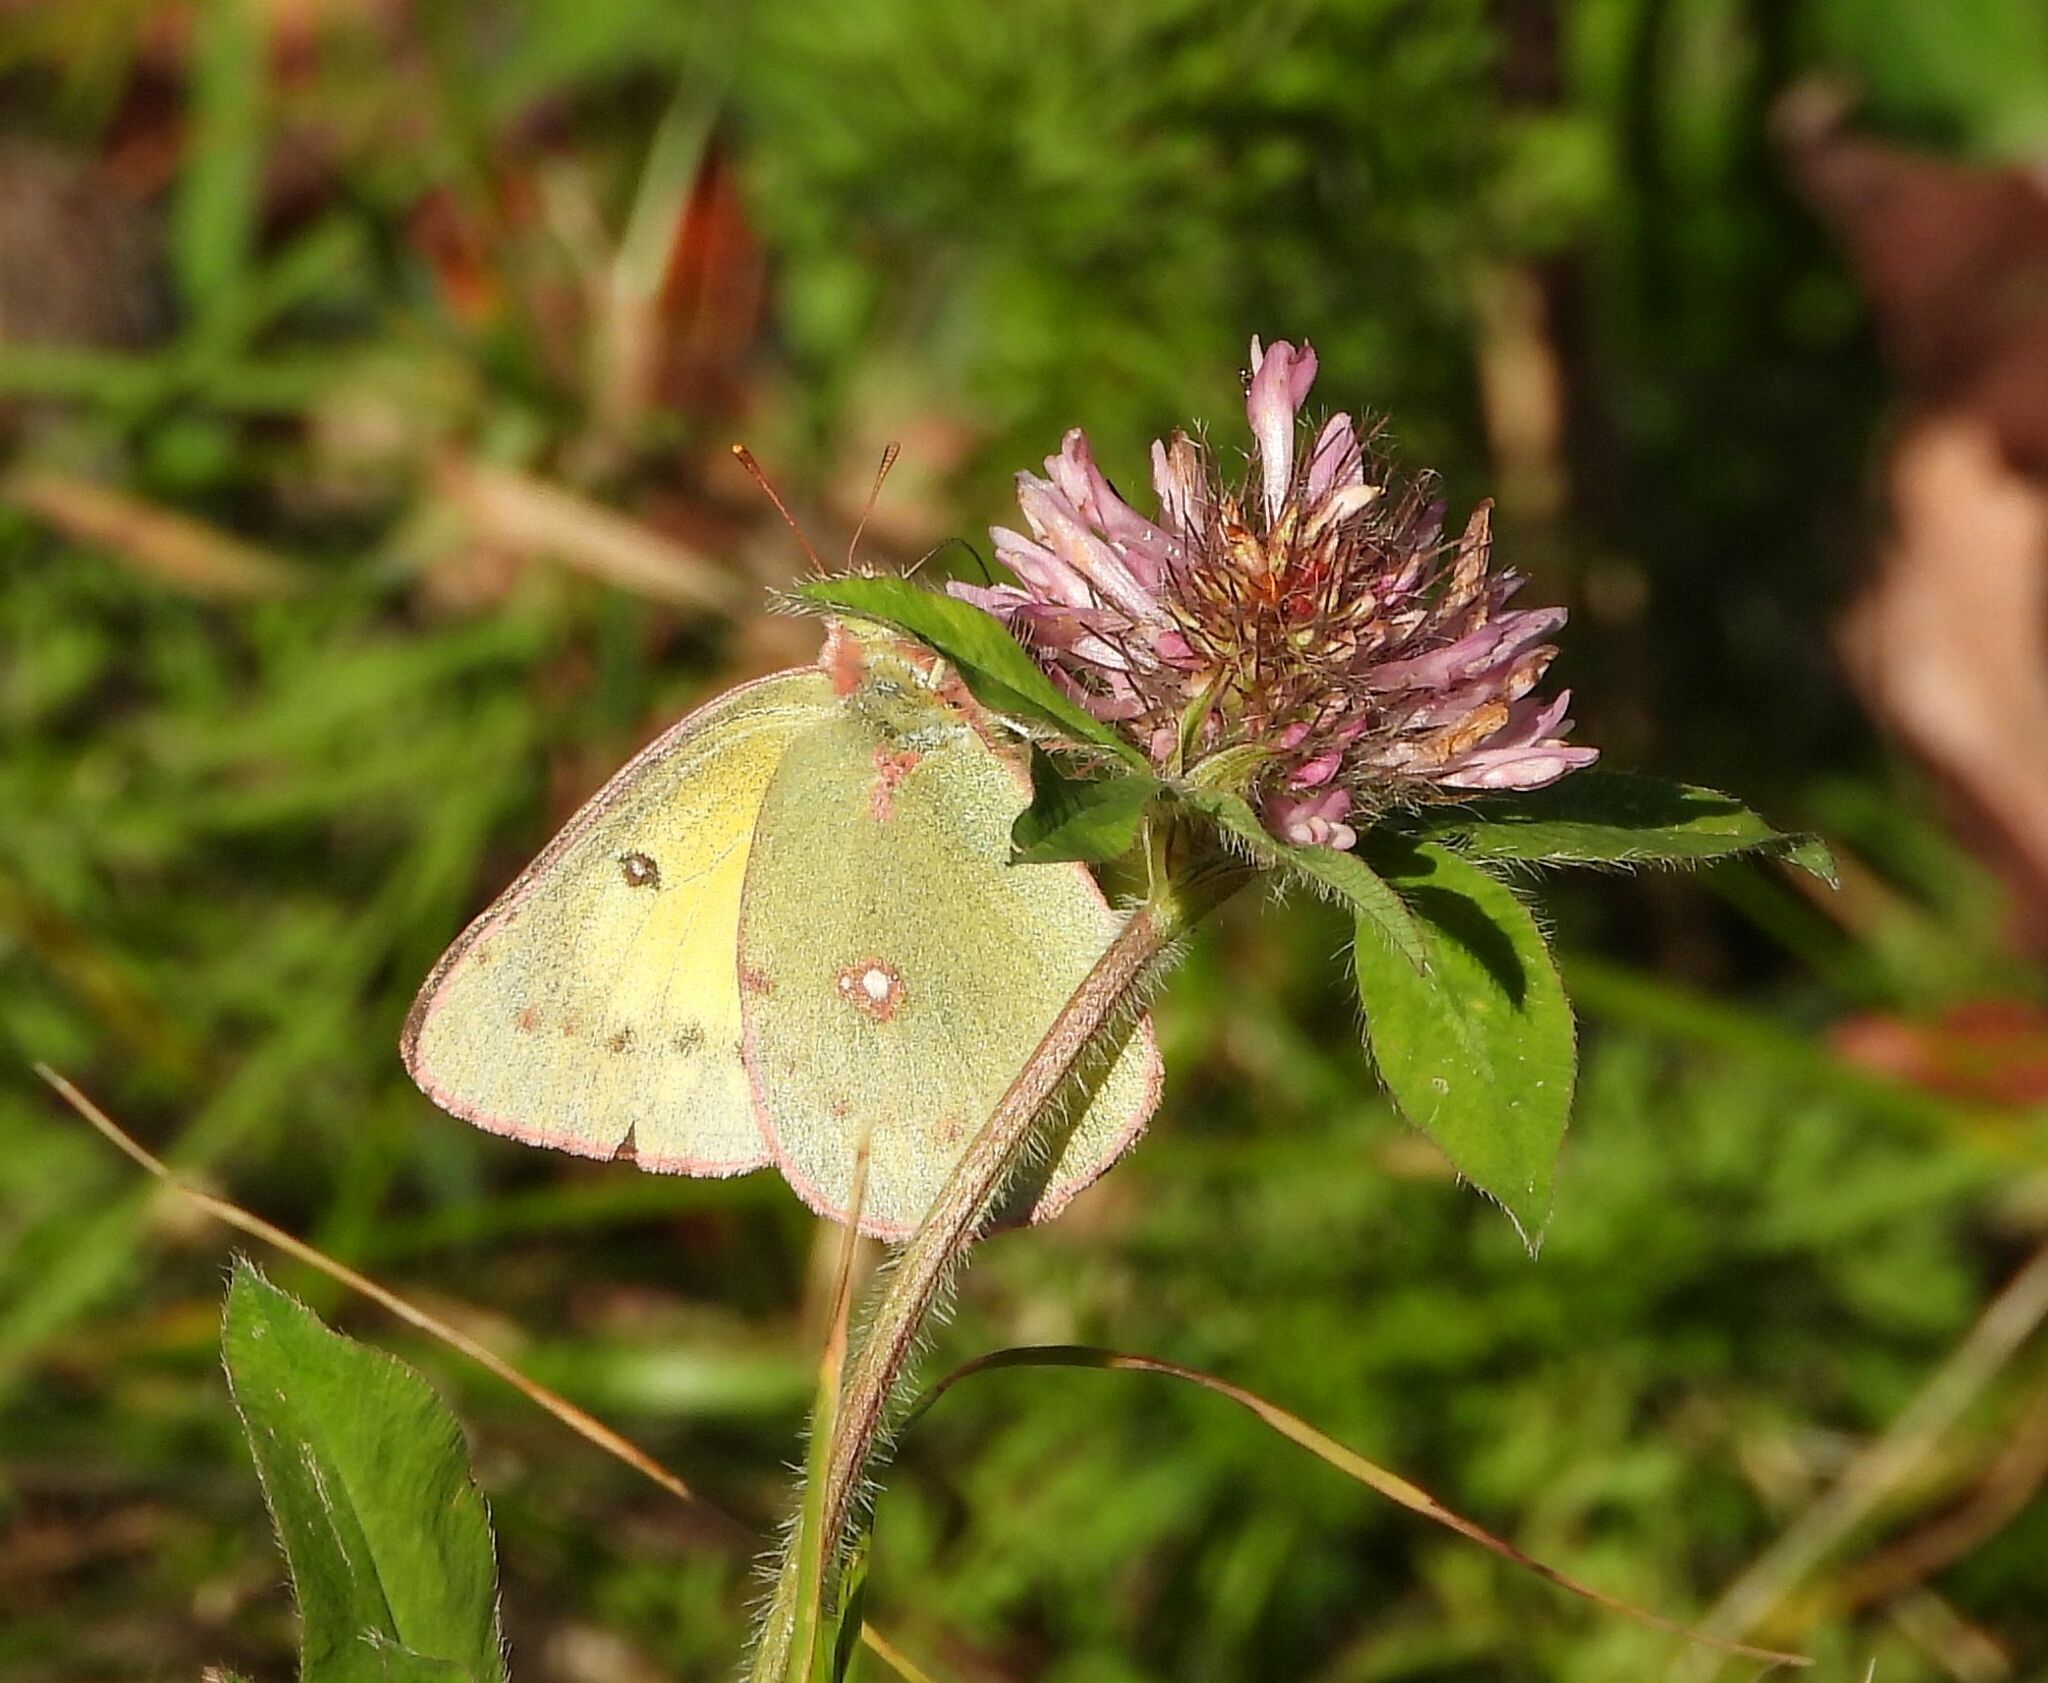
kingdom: Animalia
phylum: Arthropoda
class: Insecta
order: Lepidoptera
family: Pieridae
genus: Colias
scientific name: Colias philodice
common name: Clouded sulphur
